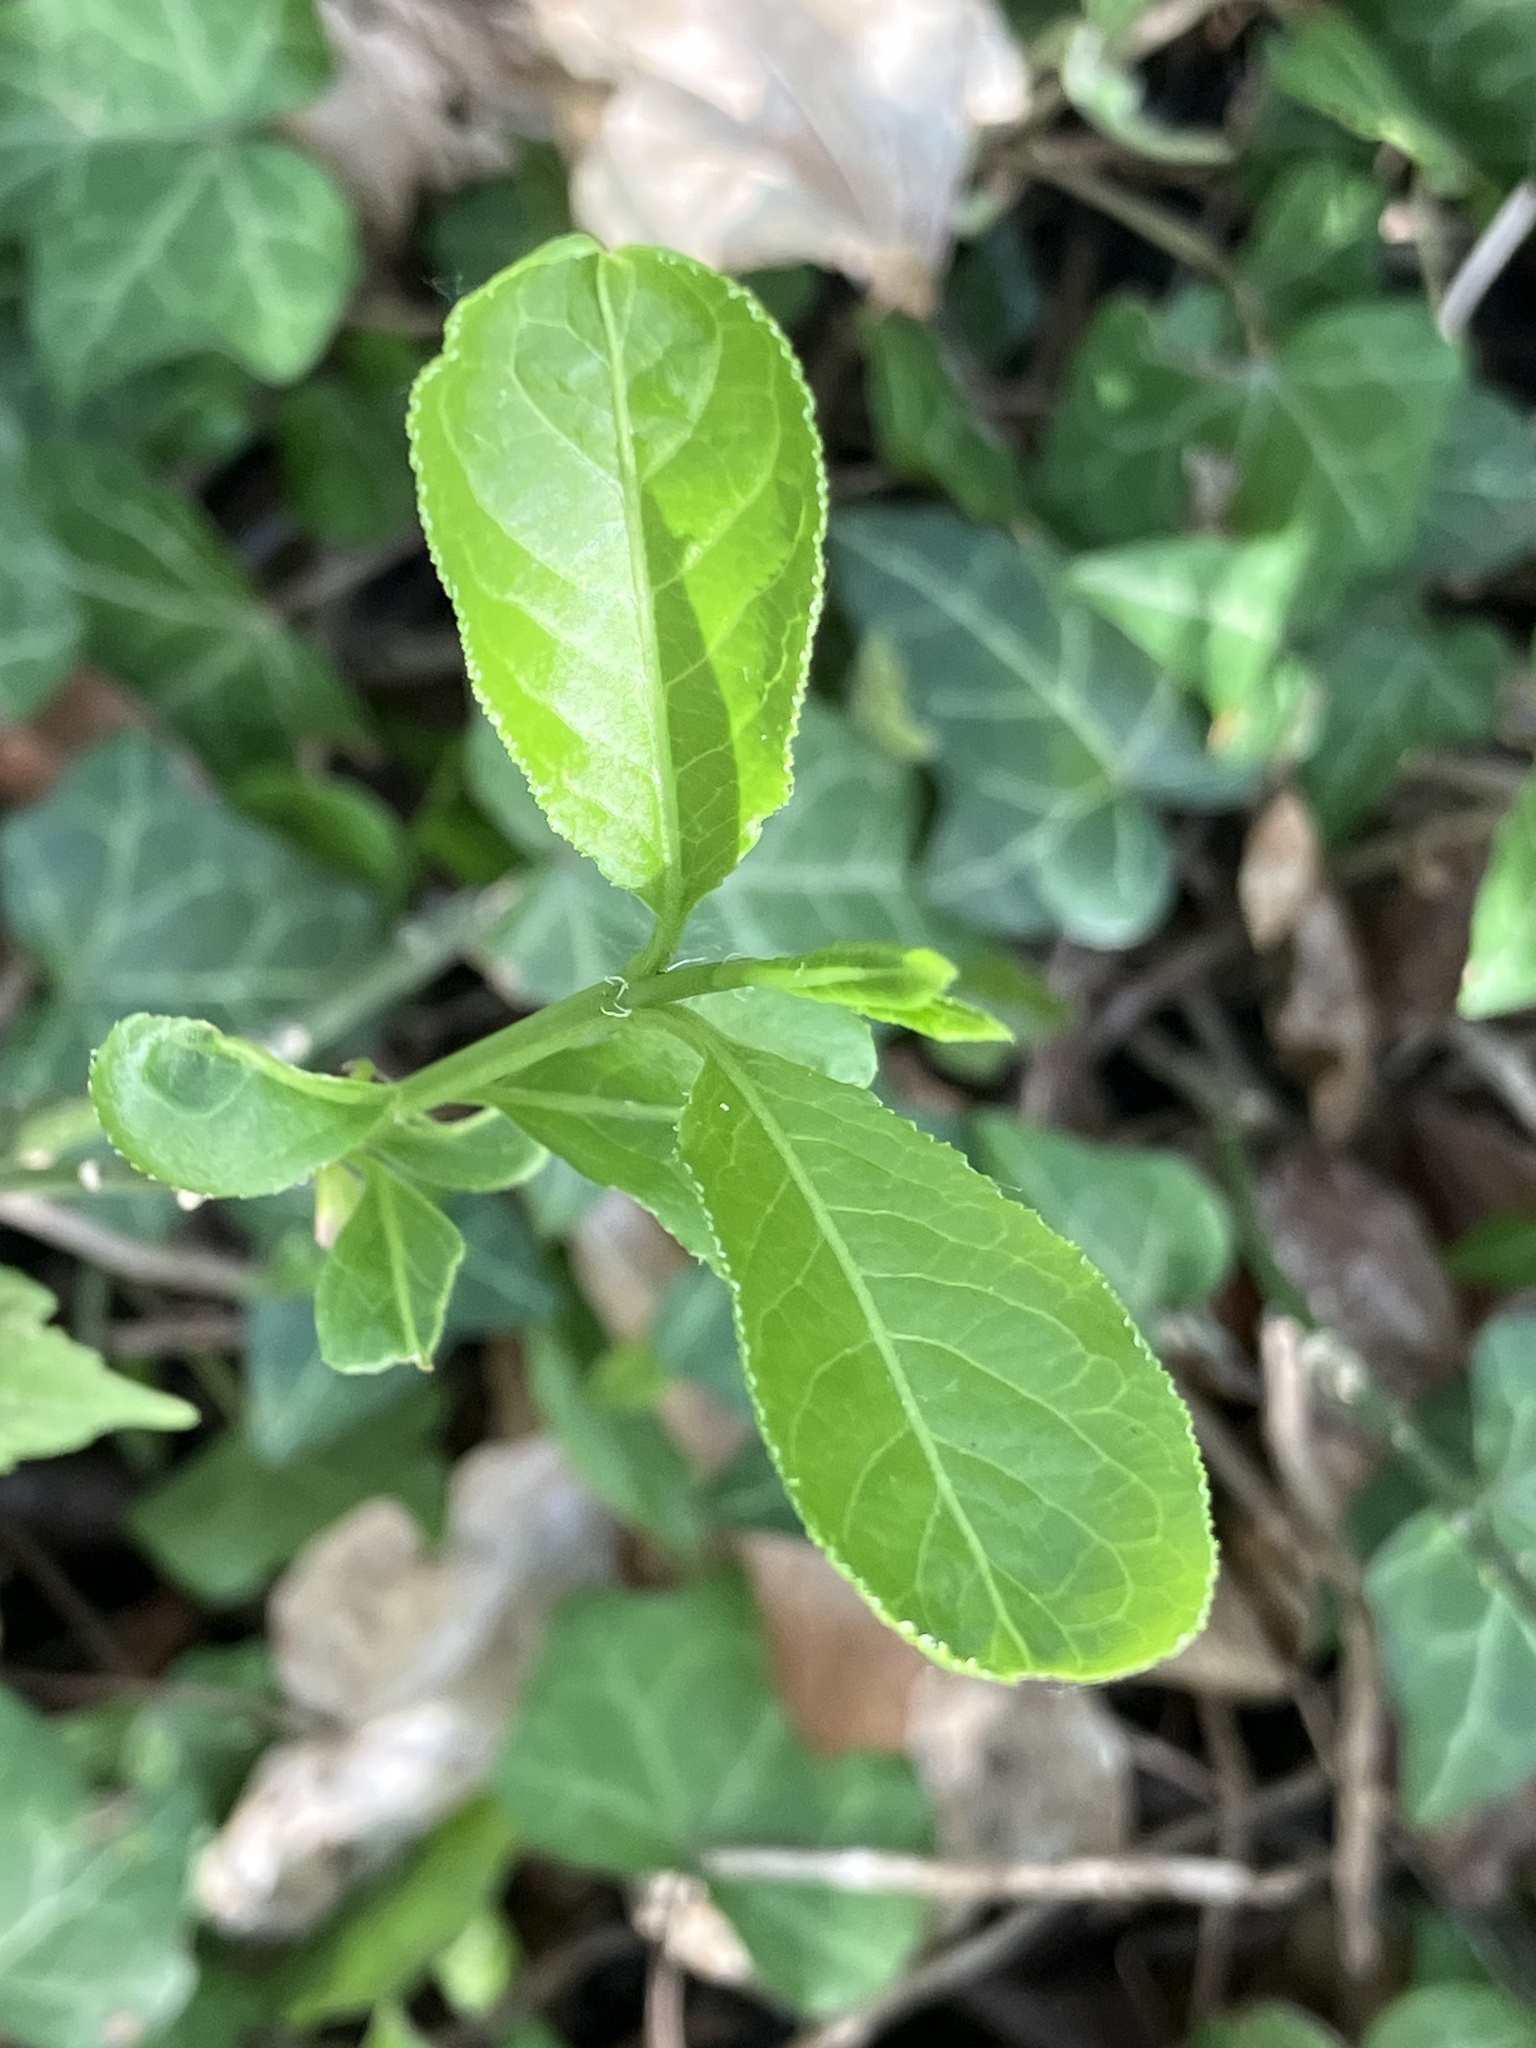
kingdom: Plantae
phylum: Tracheophyta
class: Magnoliopsida
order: Celastrales
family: Celastraceae
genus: Euonymus
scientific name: Euonymus europaeus
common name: Spindle
